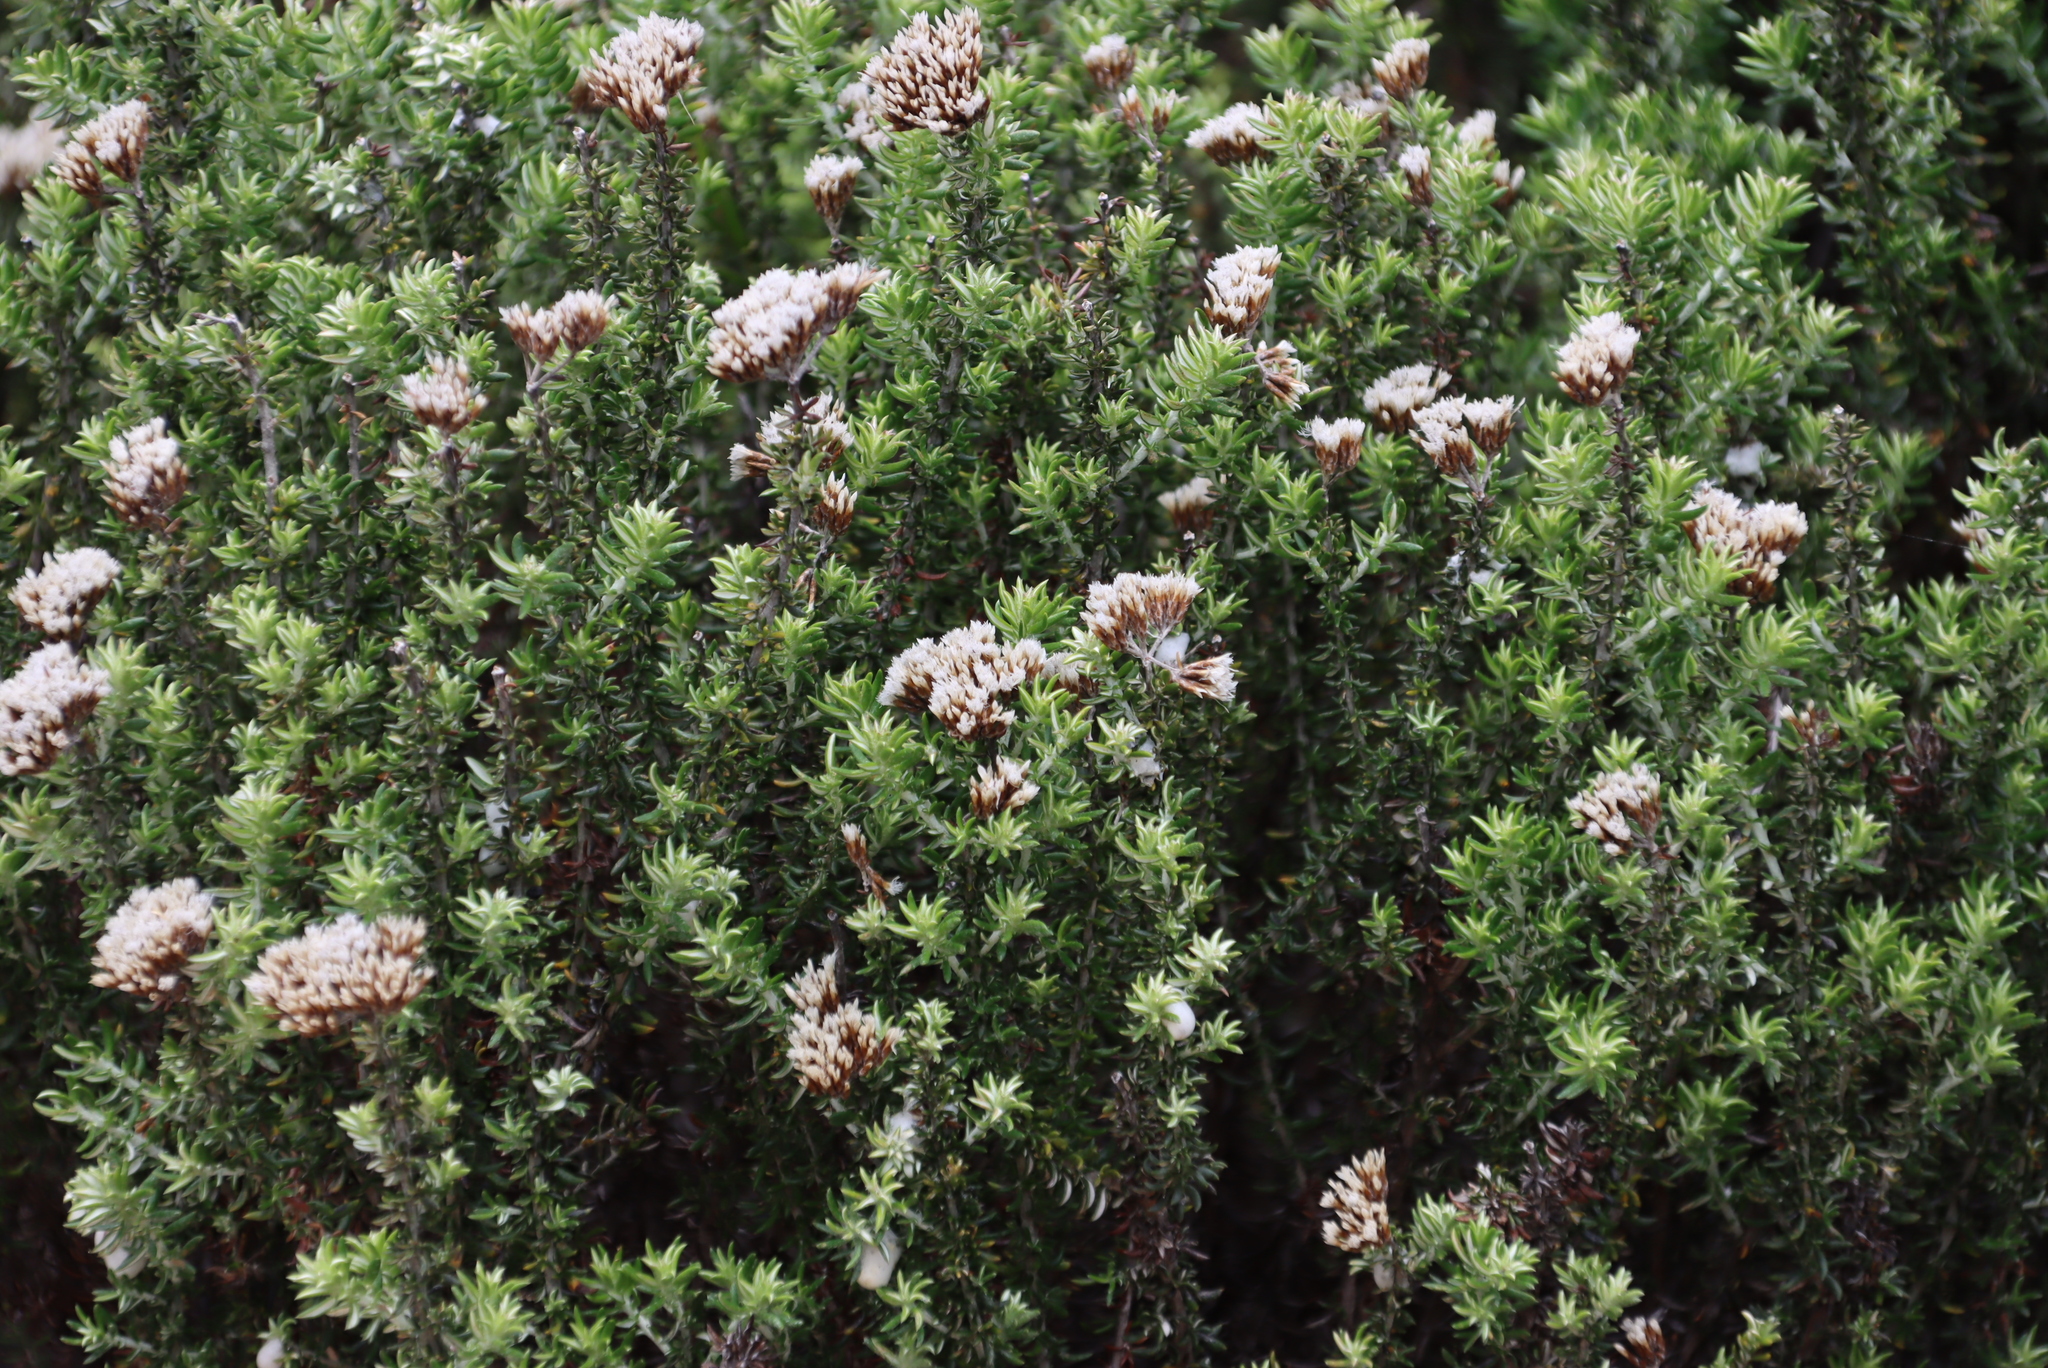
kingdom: Plantae
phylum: Tracheophyta
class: Magnoliopsida
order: Asterales
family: Asteraceae
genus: Metalasia
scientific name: Metalasia densa
